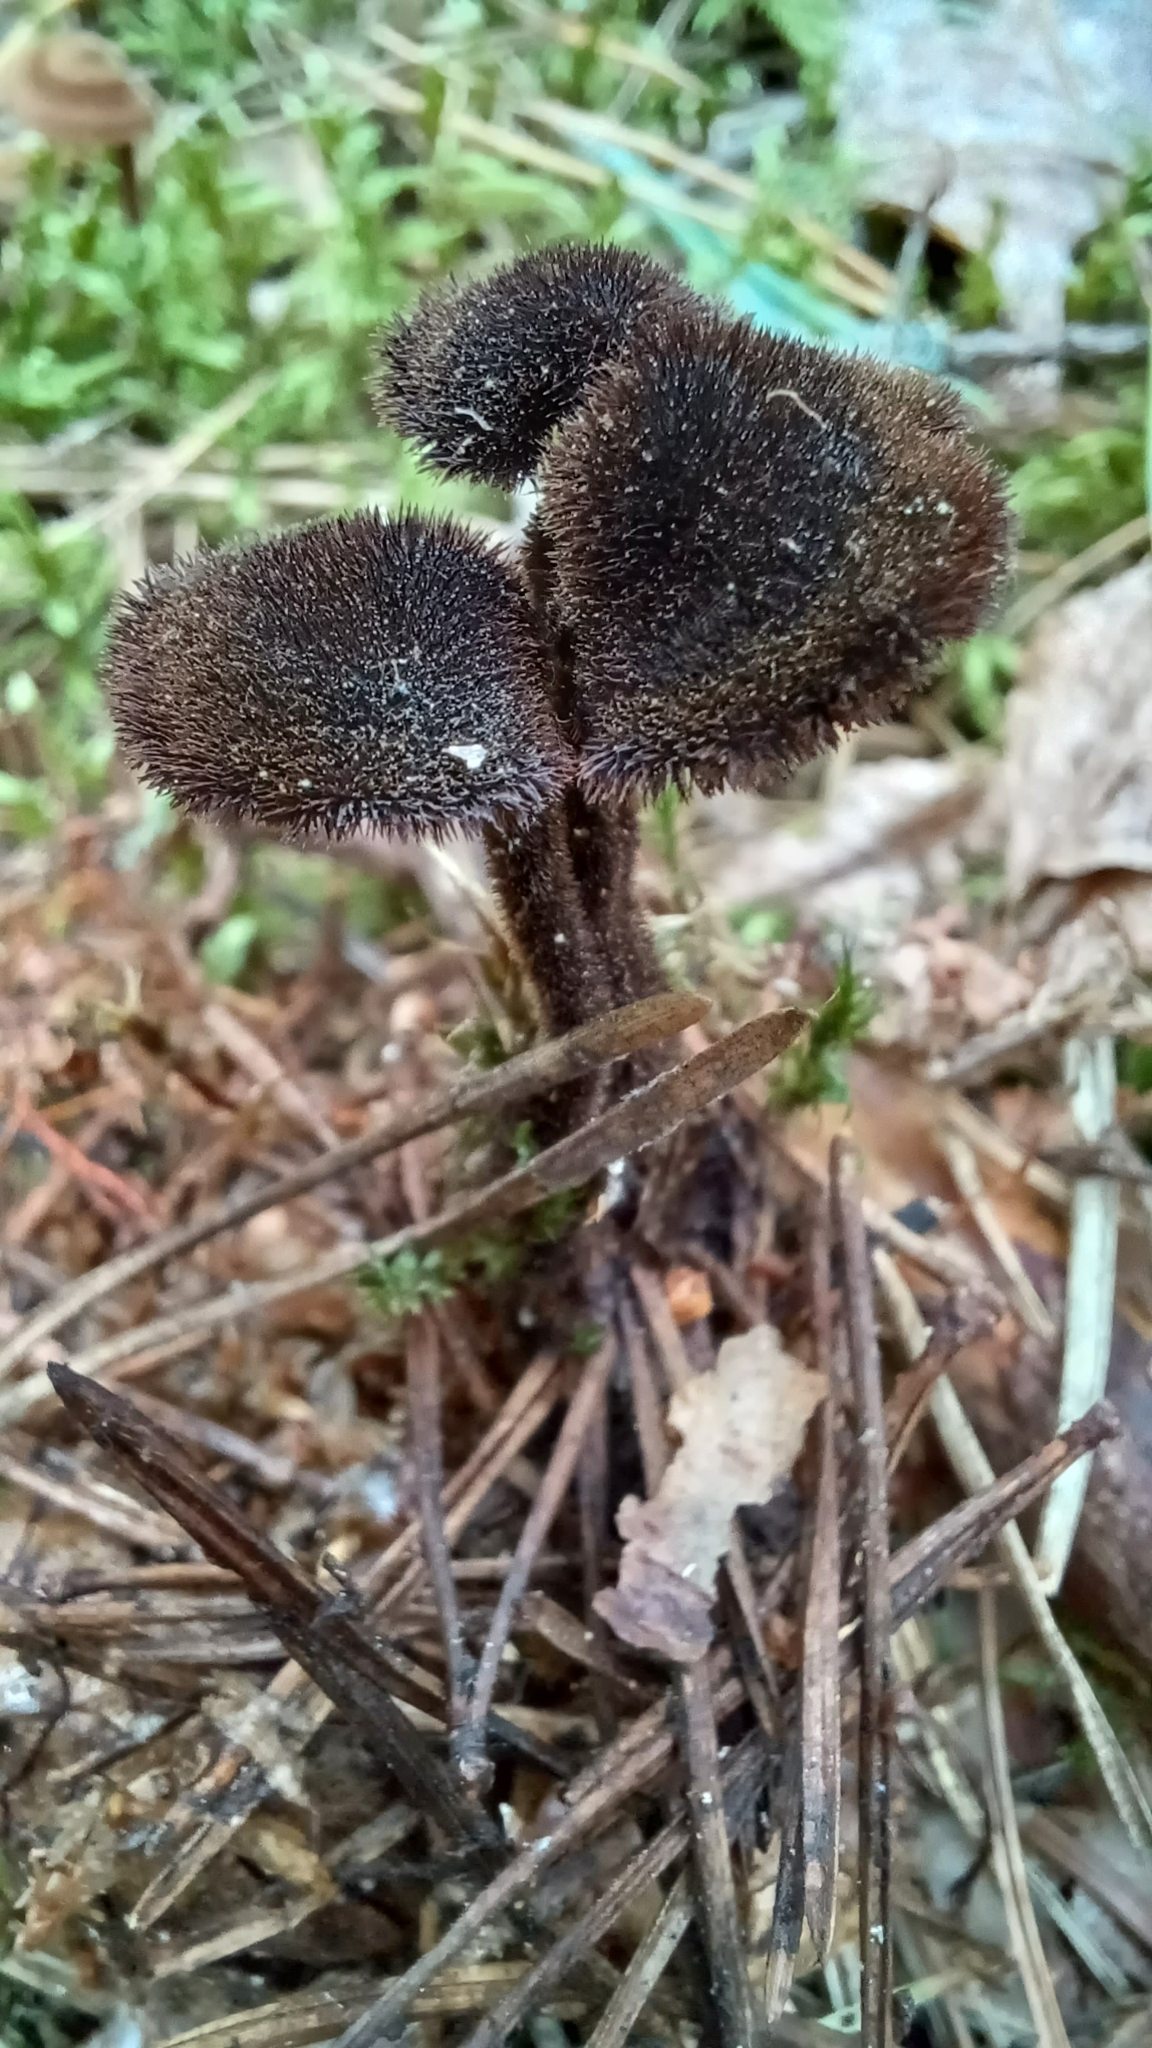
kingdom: Fungi
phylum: Basidiomycota
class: Agaricomycetes
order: Russulales
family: Auriscalpiaceae
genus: Auriscalpium
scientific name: Auriscalpium vulgare
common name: Earpick fungus
